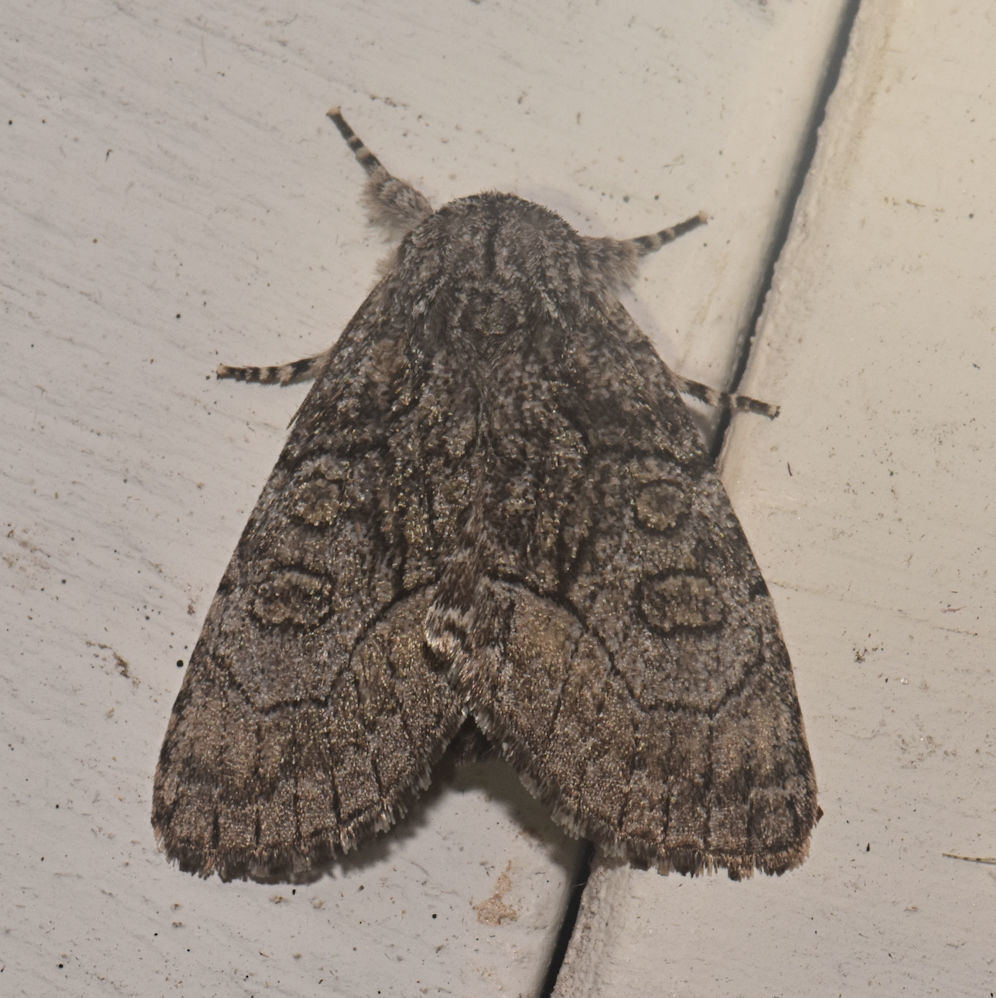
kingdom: Animalia
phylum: Arthropoda
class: Insecta
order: Lepidoptera
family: Noctuidae
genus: Raphia
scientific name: Raphia frater
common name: Brother
